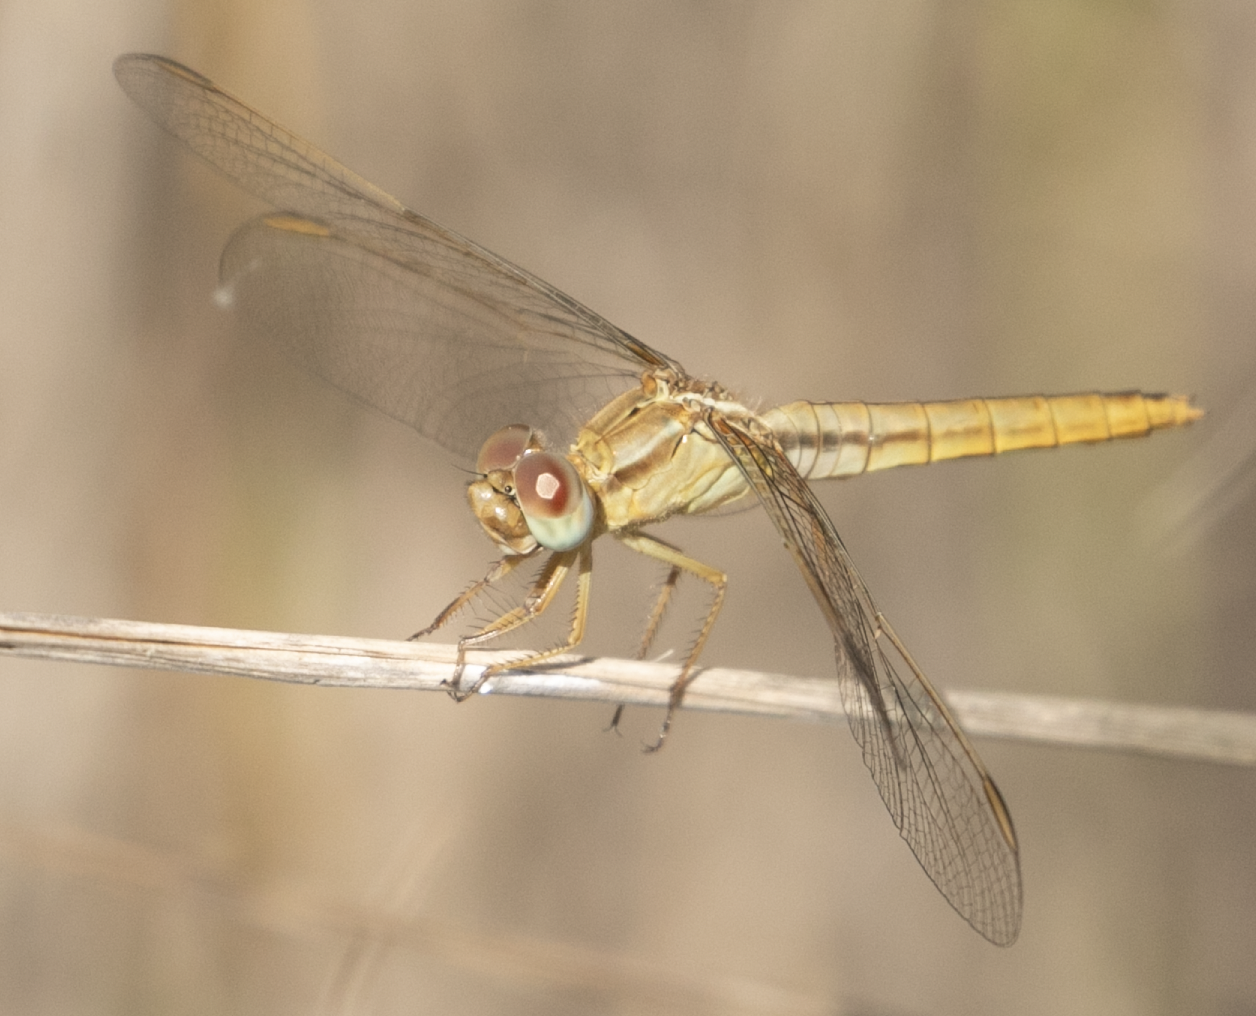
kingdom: Animalia
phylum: Arthropoda
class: Insecta
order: Odonata
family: Libellulidae
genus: Crocothemis
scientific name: Crocothemis erythraea
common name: Scarlet dragonfly
